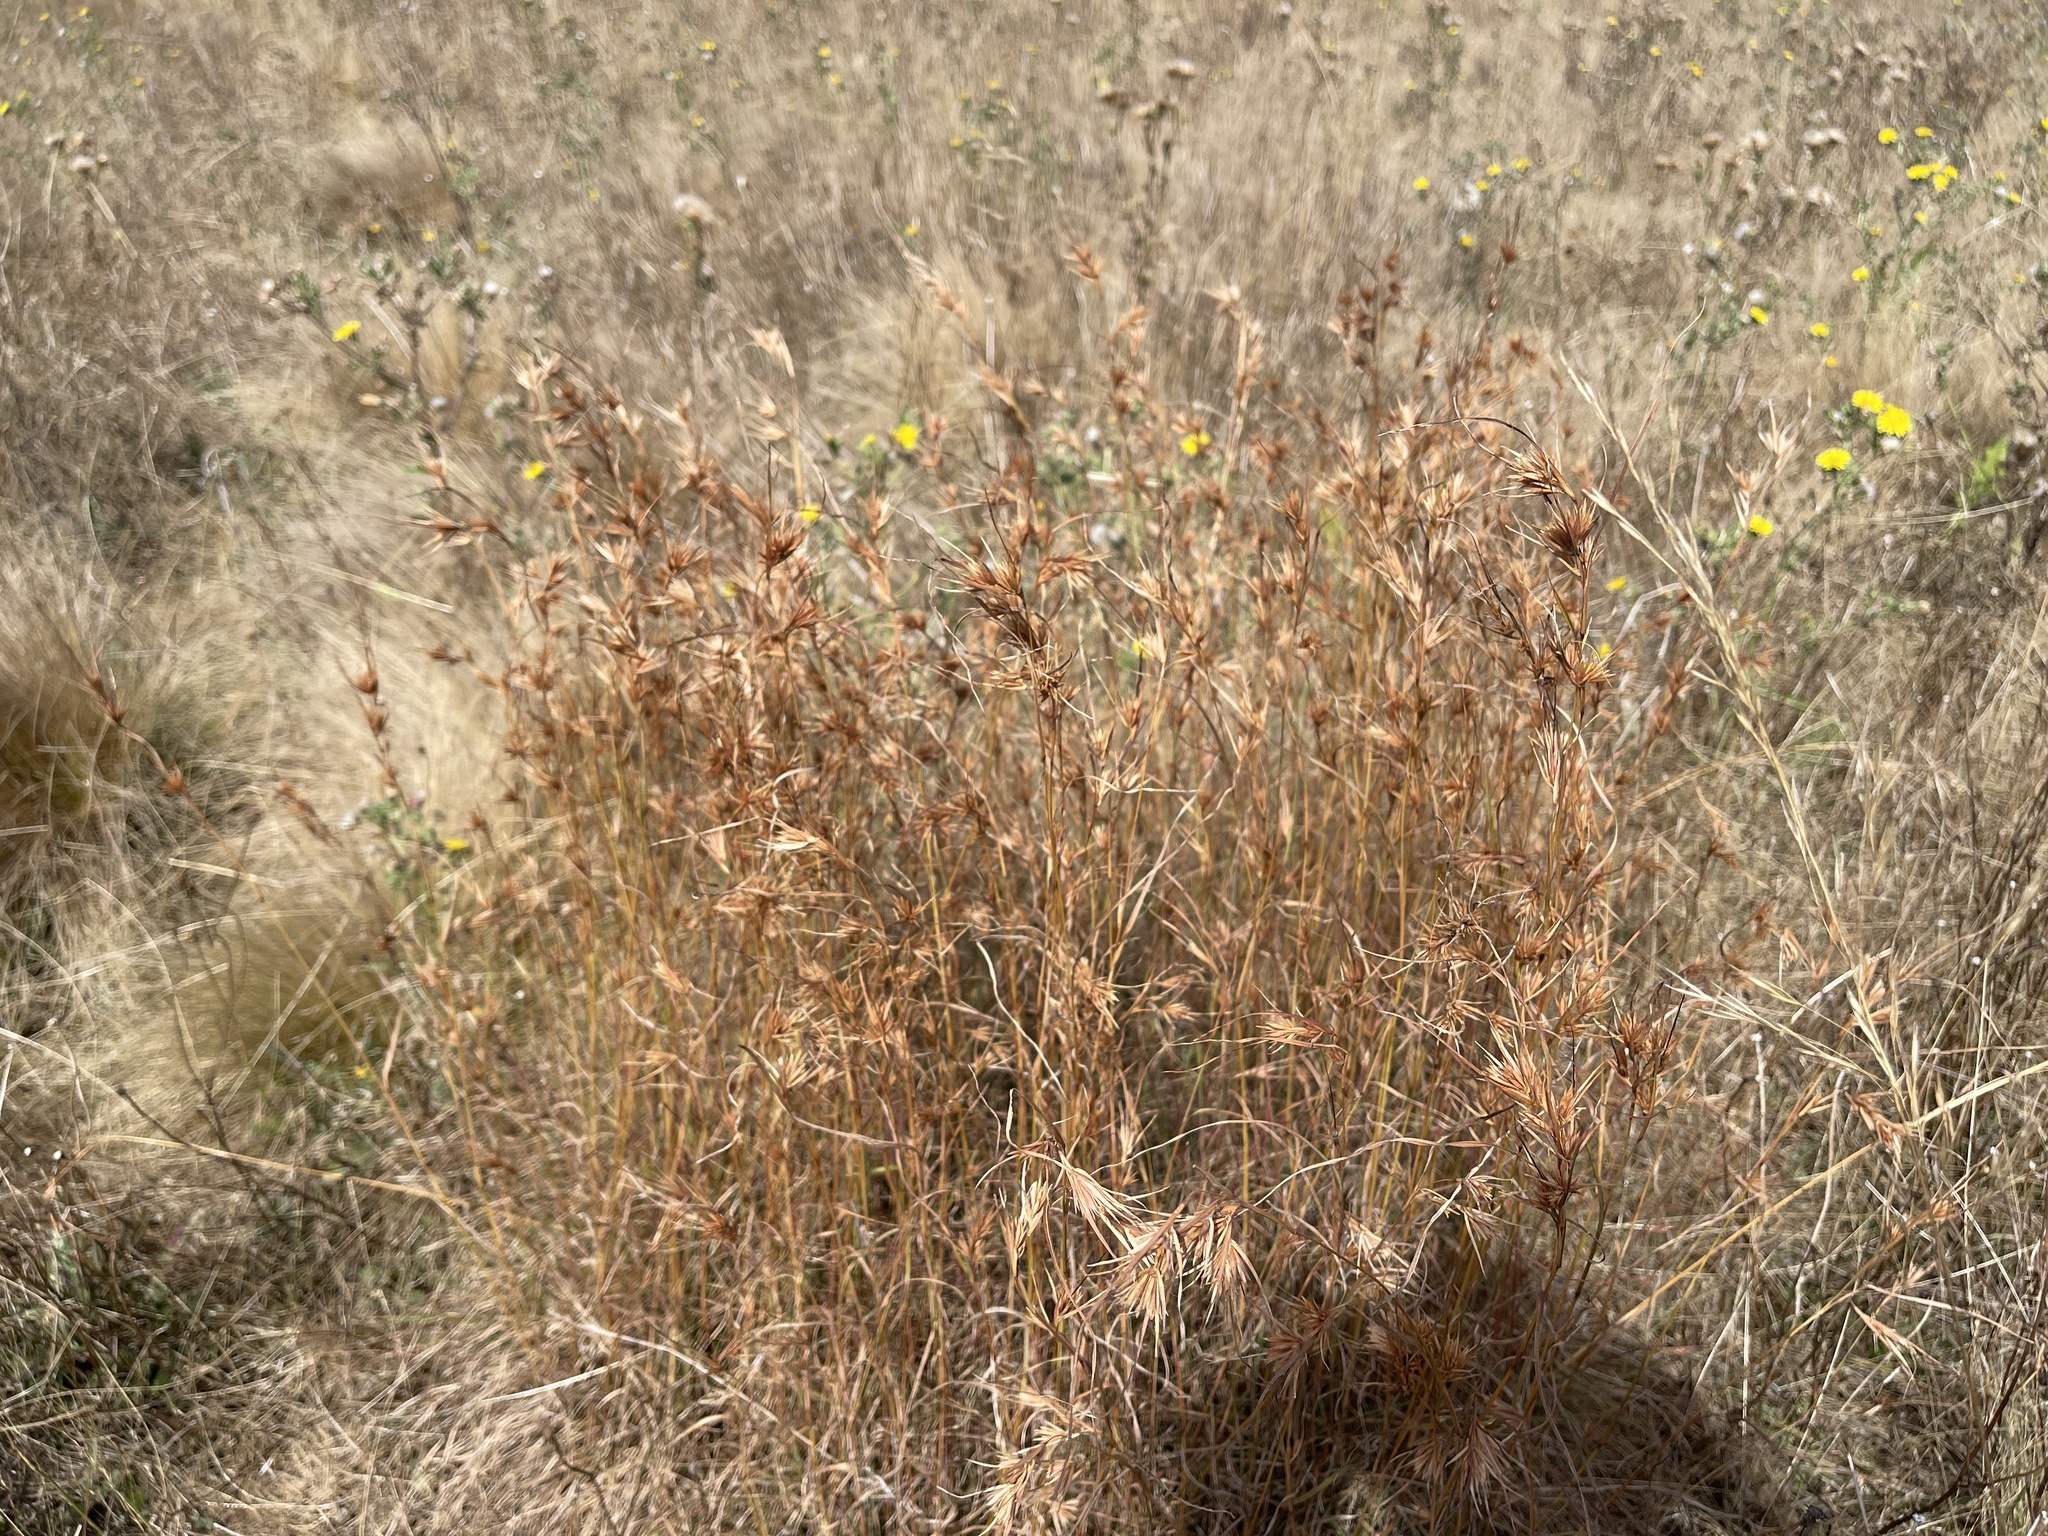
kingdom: Plantae
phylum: Tracheophyta
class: Liliopsida
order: Poales
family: Poaceae
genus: Themeda
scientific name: Themeda triandra
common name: Kangaroo grass
